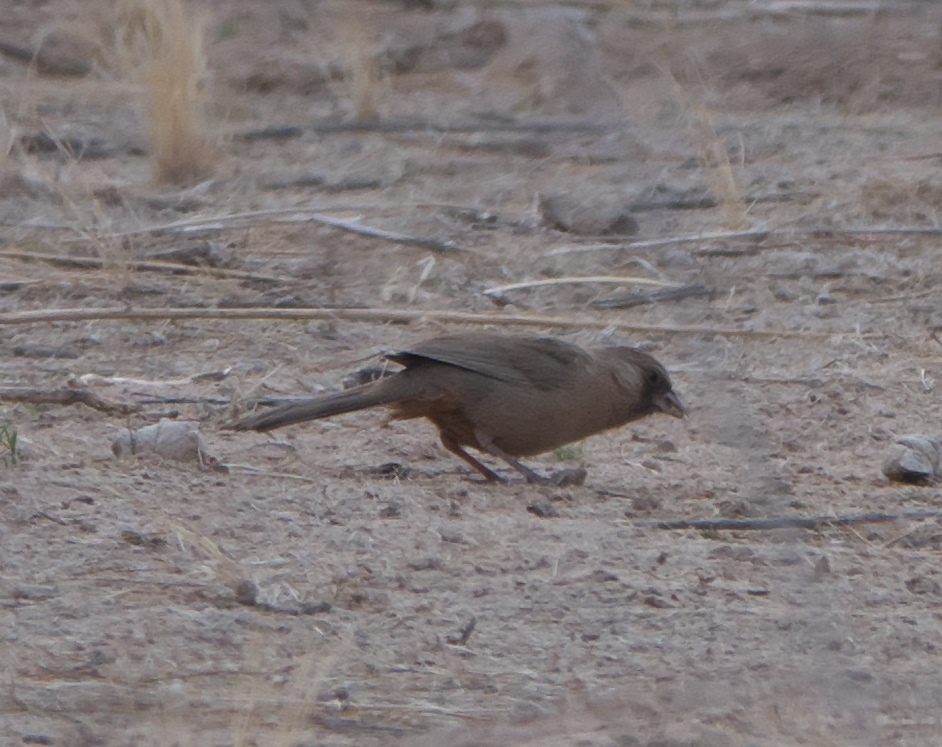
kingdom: Animalia
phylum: Chordata
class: Aves
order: Passeriformes
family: Passerellidae
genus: Melozone
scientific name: Melozone aberti
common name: Abert's towhee
